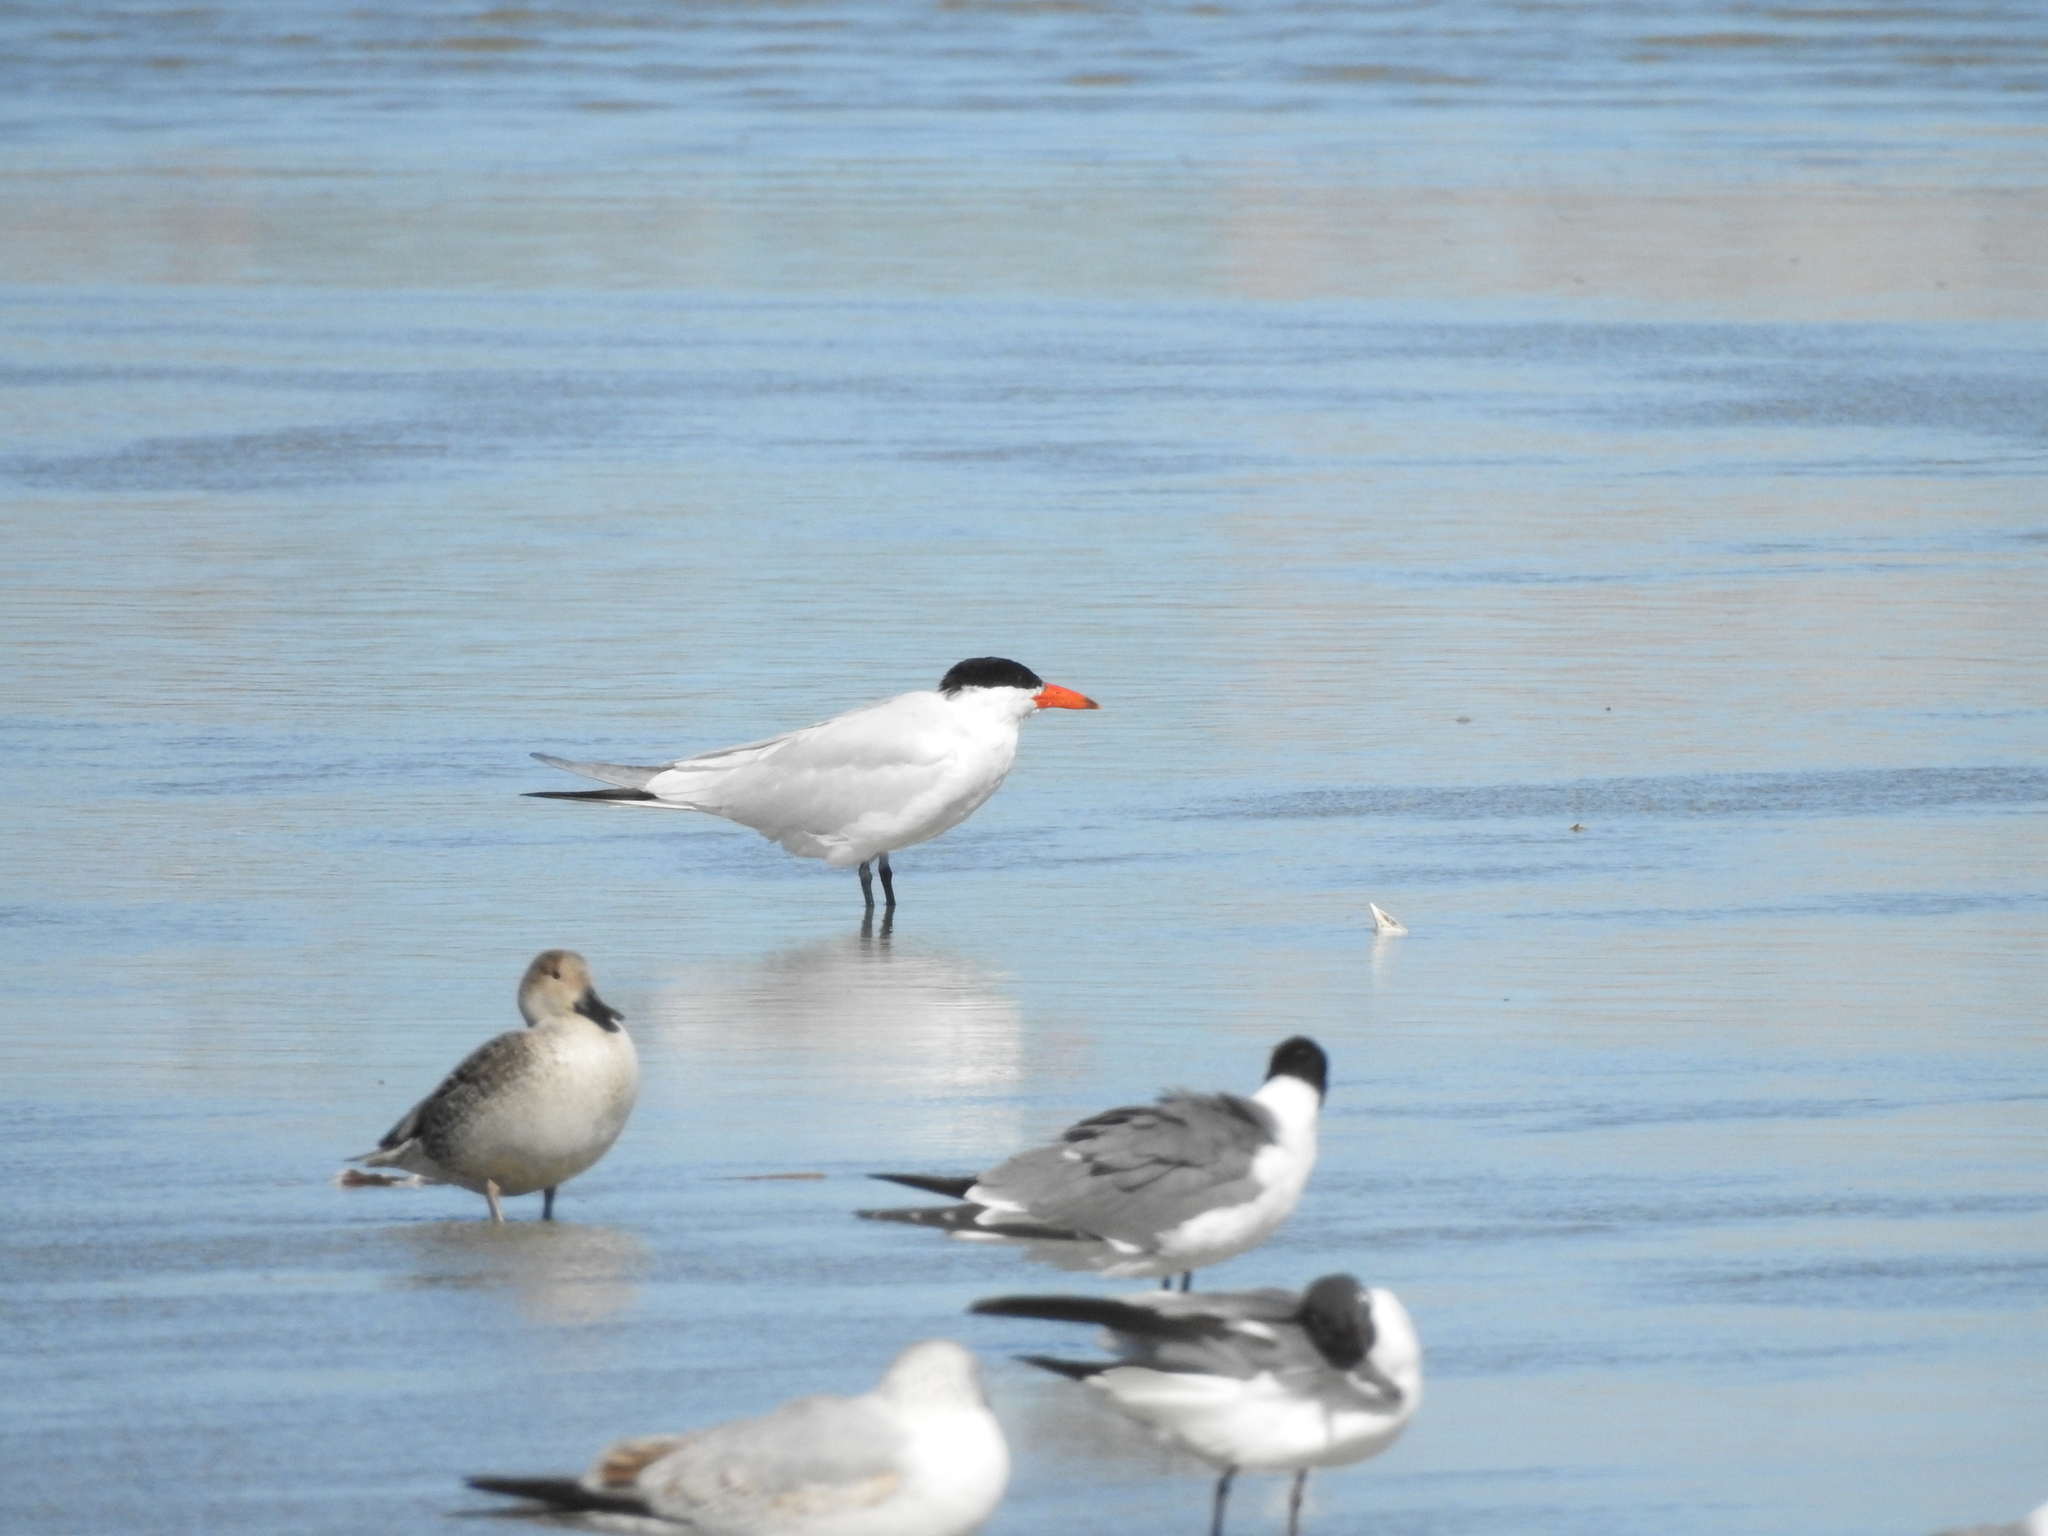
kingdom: Animalia
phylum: Chordata
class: Aves
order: Charadriiformes
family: Laridae
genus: Hydroprogne
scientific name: Hydroprogne caspia
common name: Caspian tern
